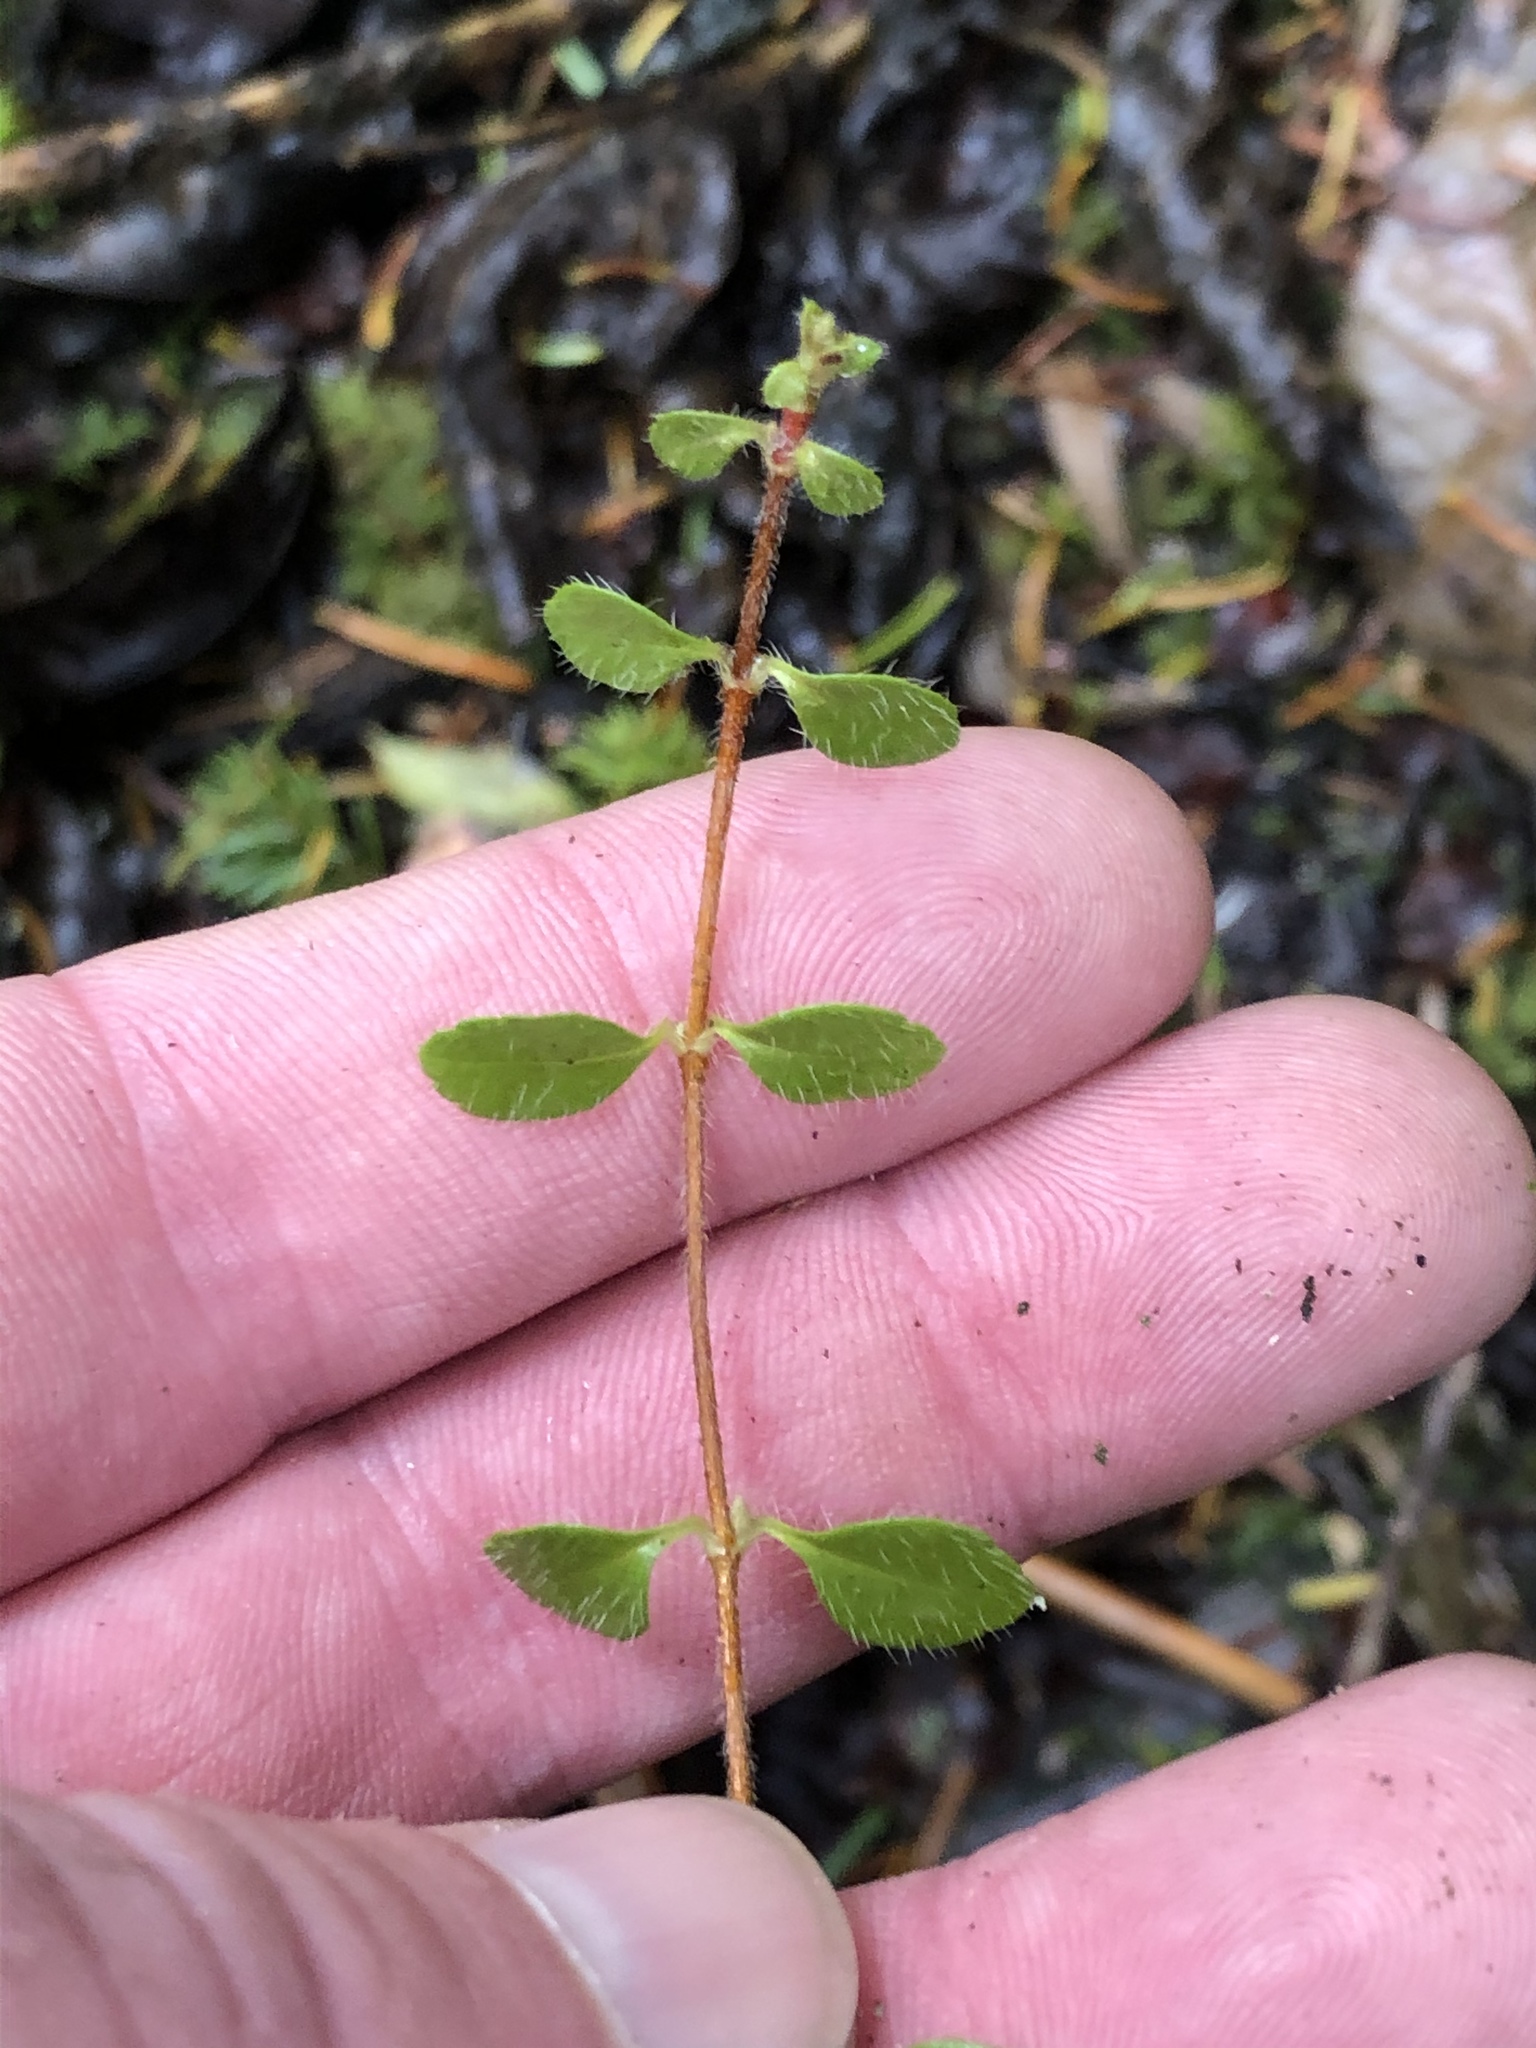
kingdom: Plantae
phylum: Tracheophyta
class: Magnoliopsida
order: Dipsacales
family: Caprifoliaceae
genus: Linnaea
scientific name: Linnaea borealis
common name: Twinflower
